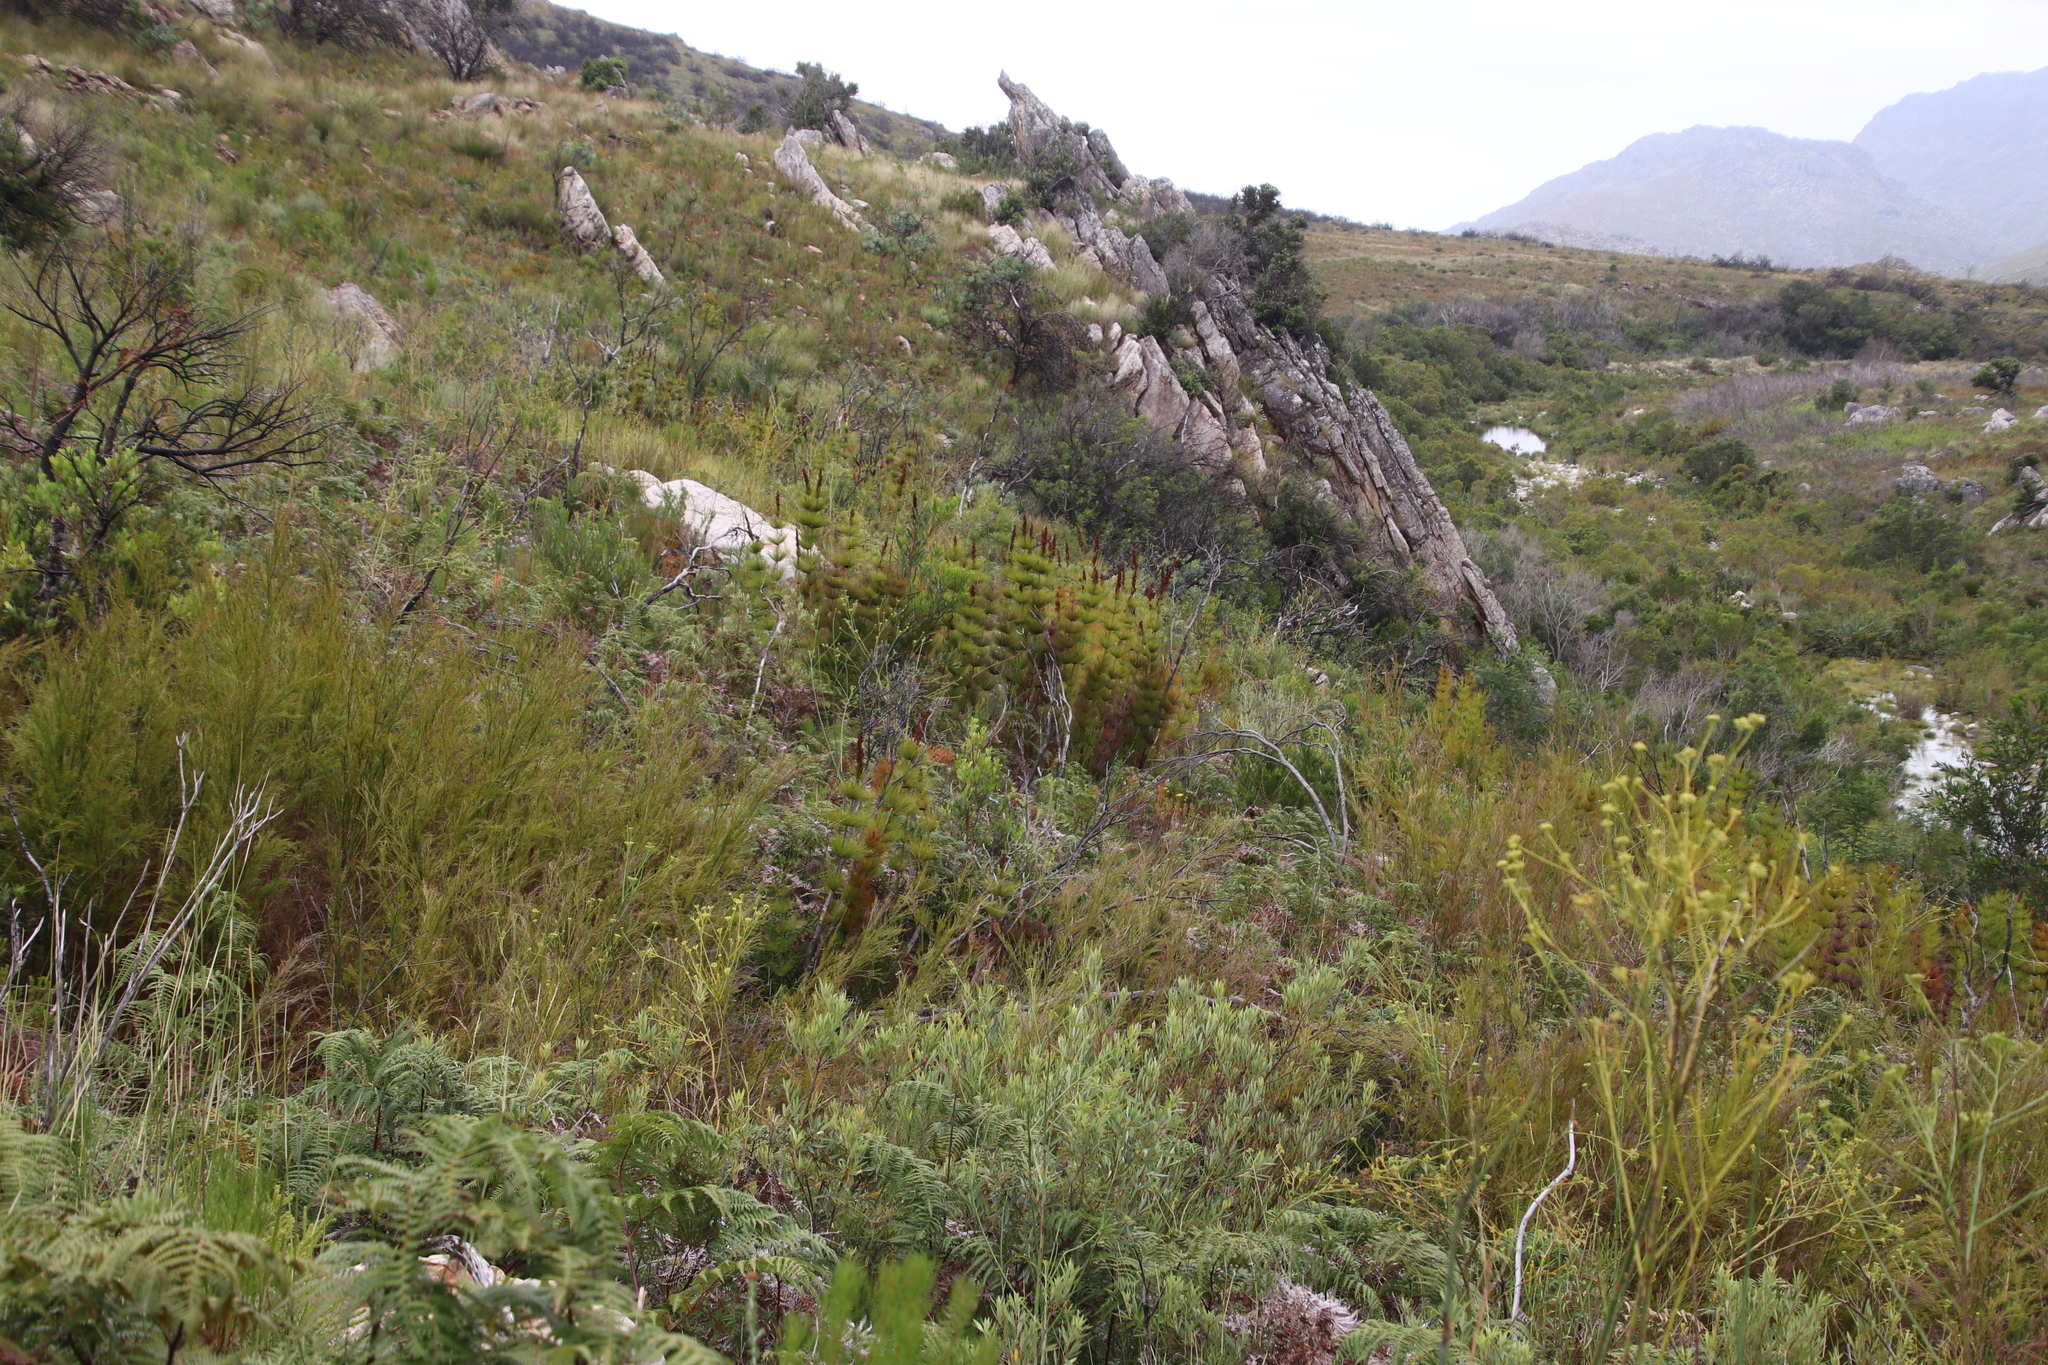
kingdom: Plantae
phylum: Tracheophyta
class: Liliopsida
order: Poales
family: Restionaceae
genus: Elegia
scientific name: Elegia capensis
